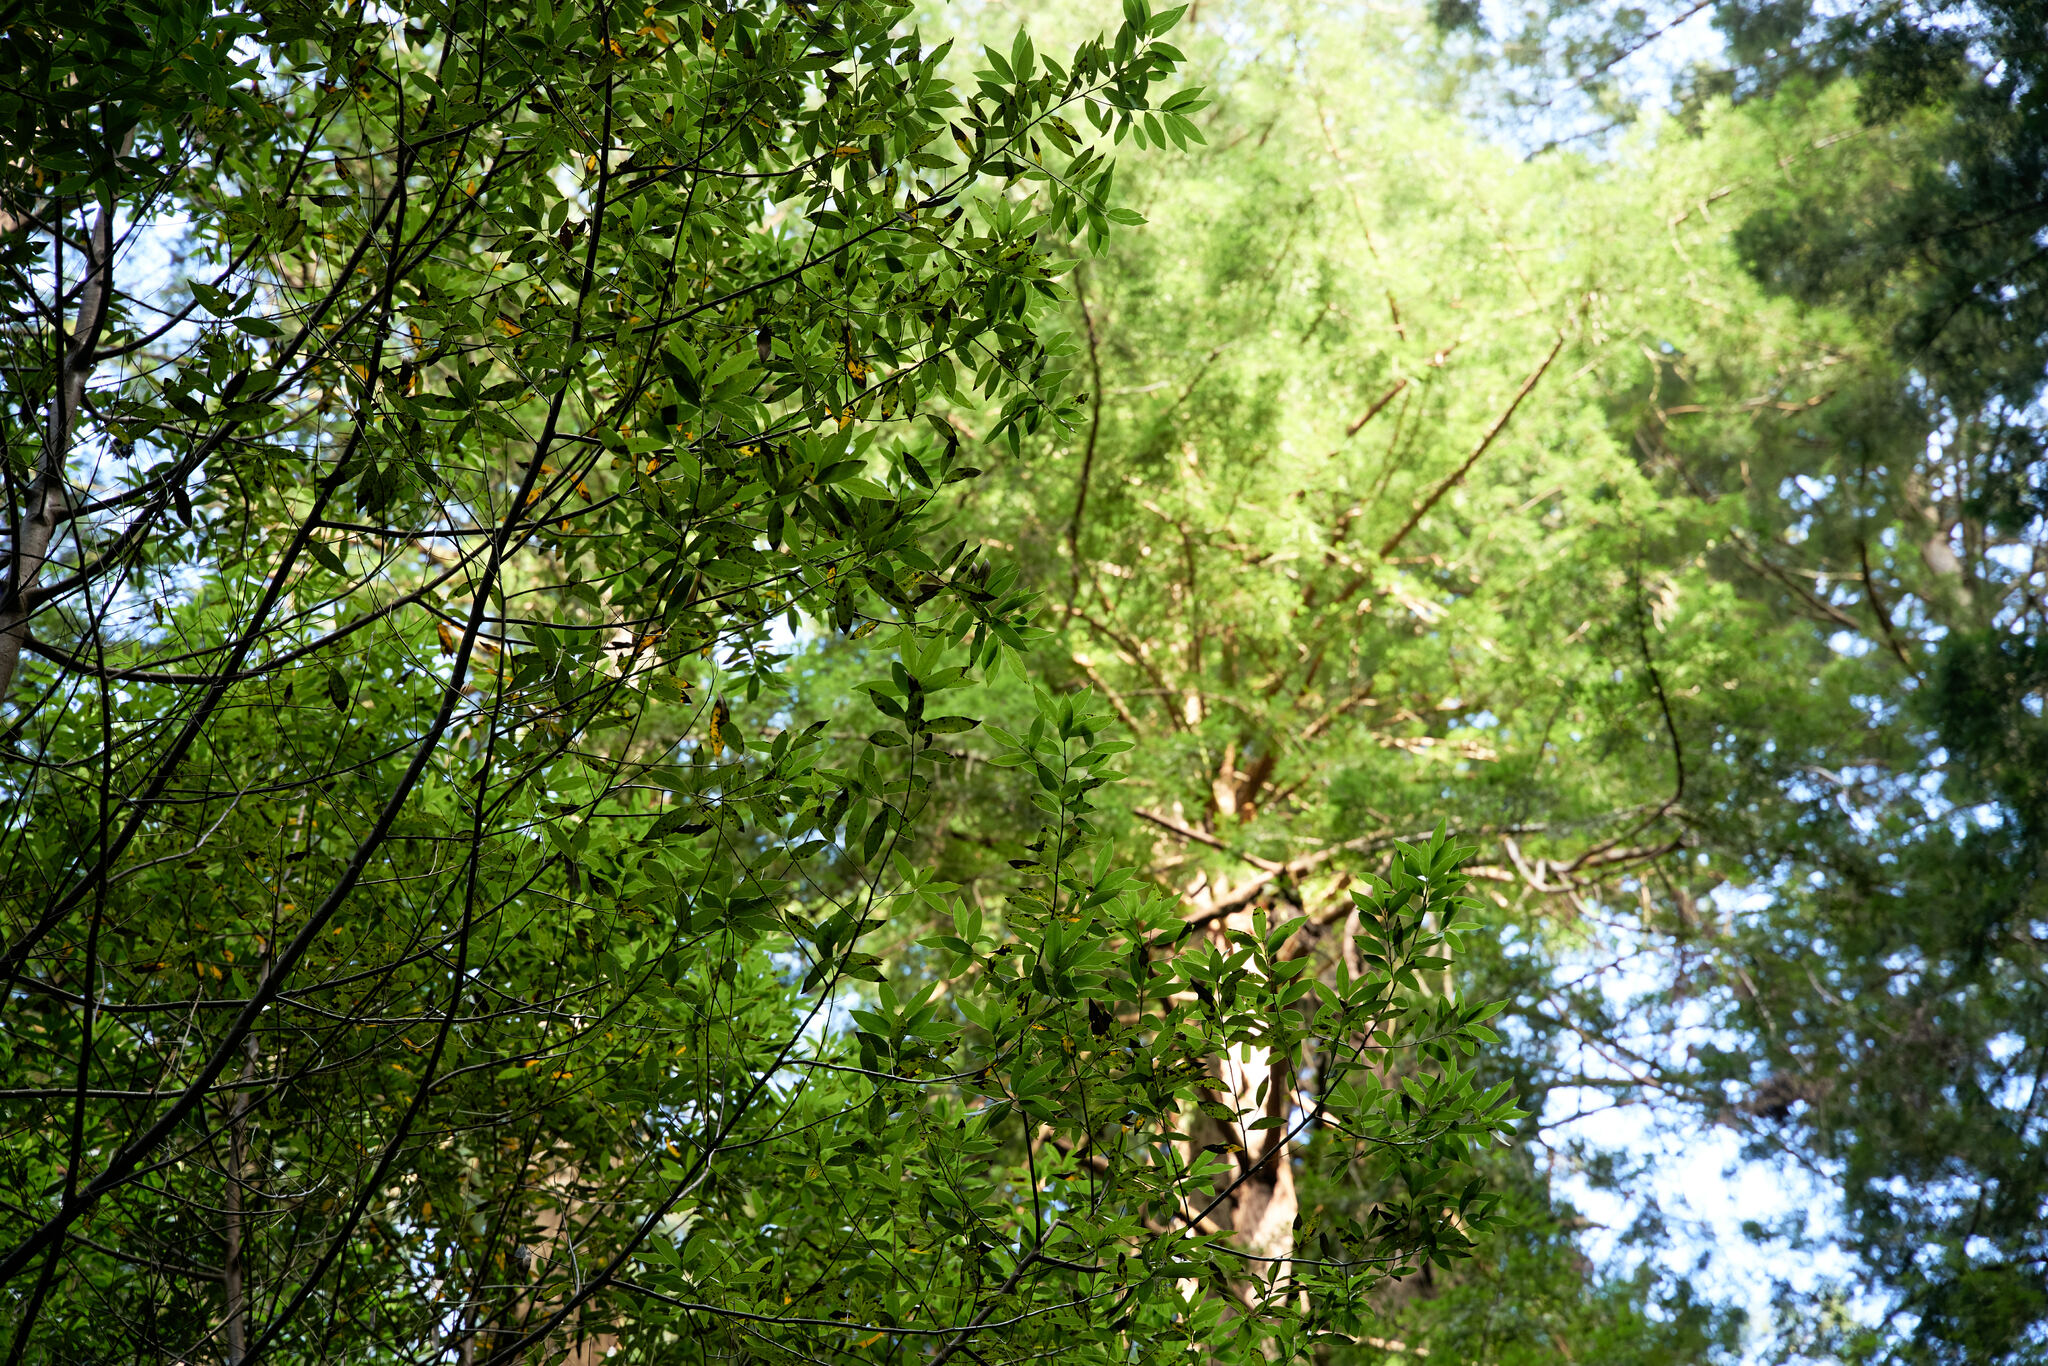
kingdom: Plantae
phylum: Tracheophyta
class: Magnoliopsida
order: Laurales
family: Lauraceae
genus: Umbellularia
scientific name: Umbellularia californica
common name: California bay
